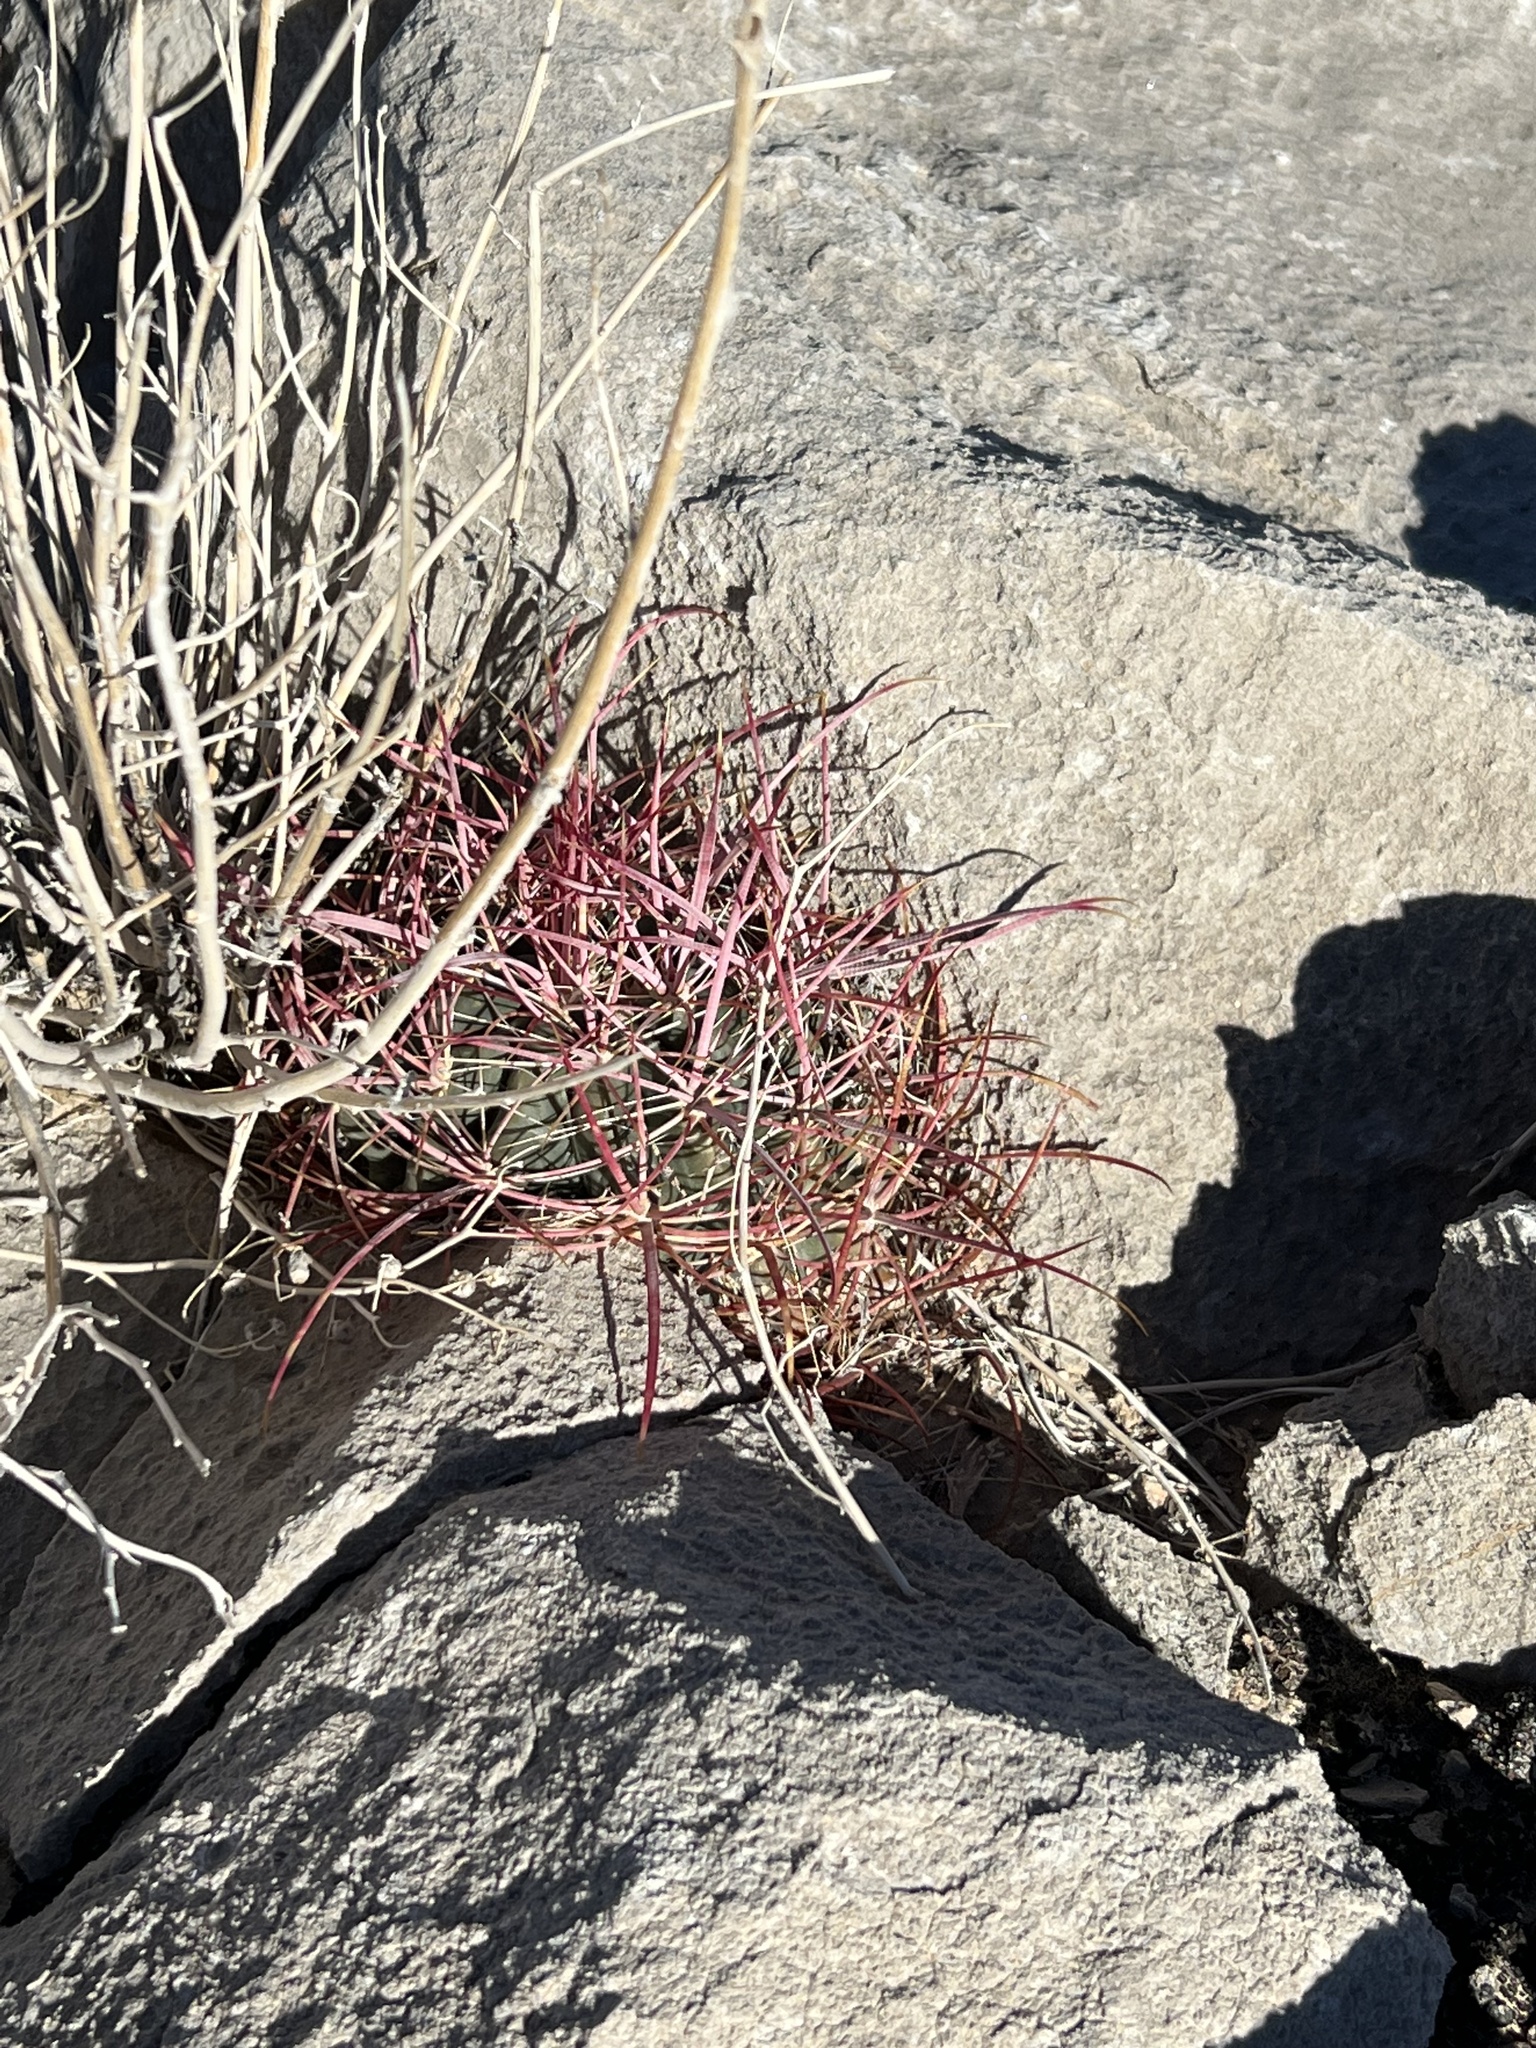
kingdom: Plantae
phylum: Tracheophyta
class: Magnoliopsida
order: Caryophyllales
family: Cactaceae
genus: Ferocactus
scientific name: Ferocactus cylindraceus
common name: California barrel cactus
